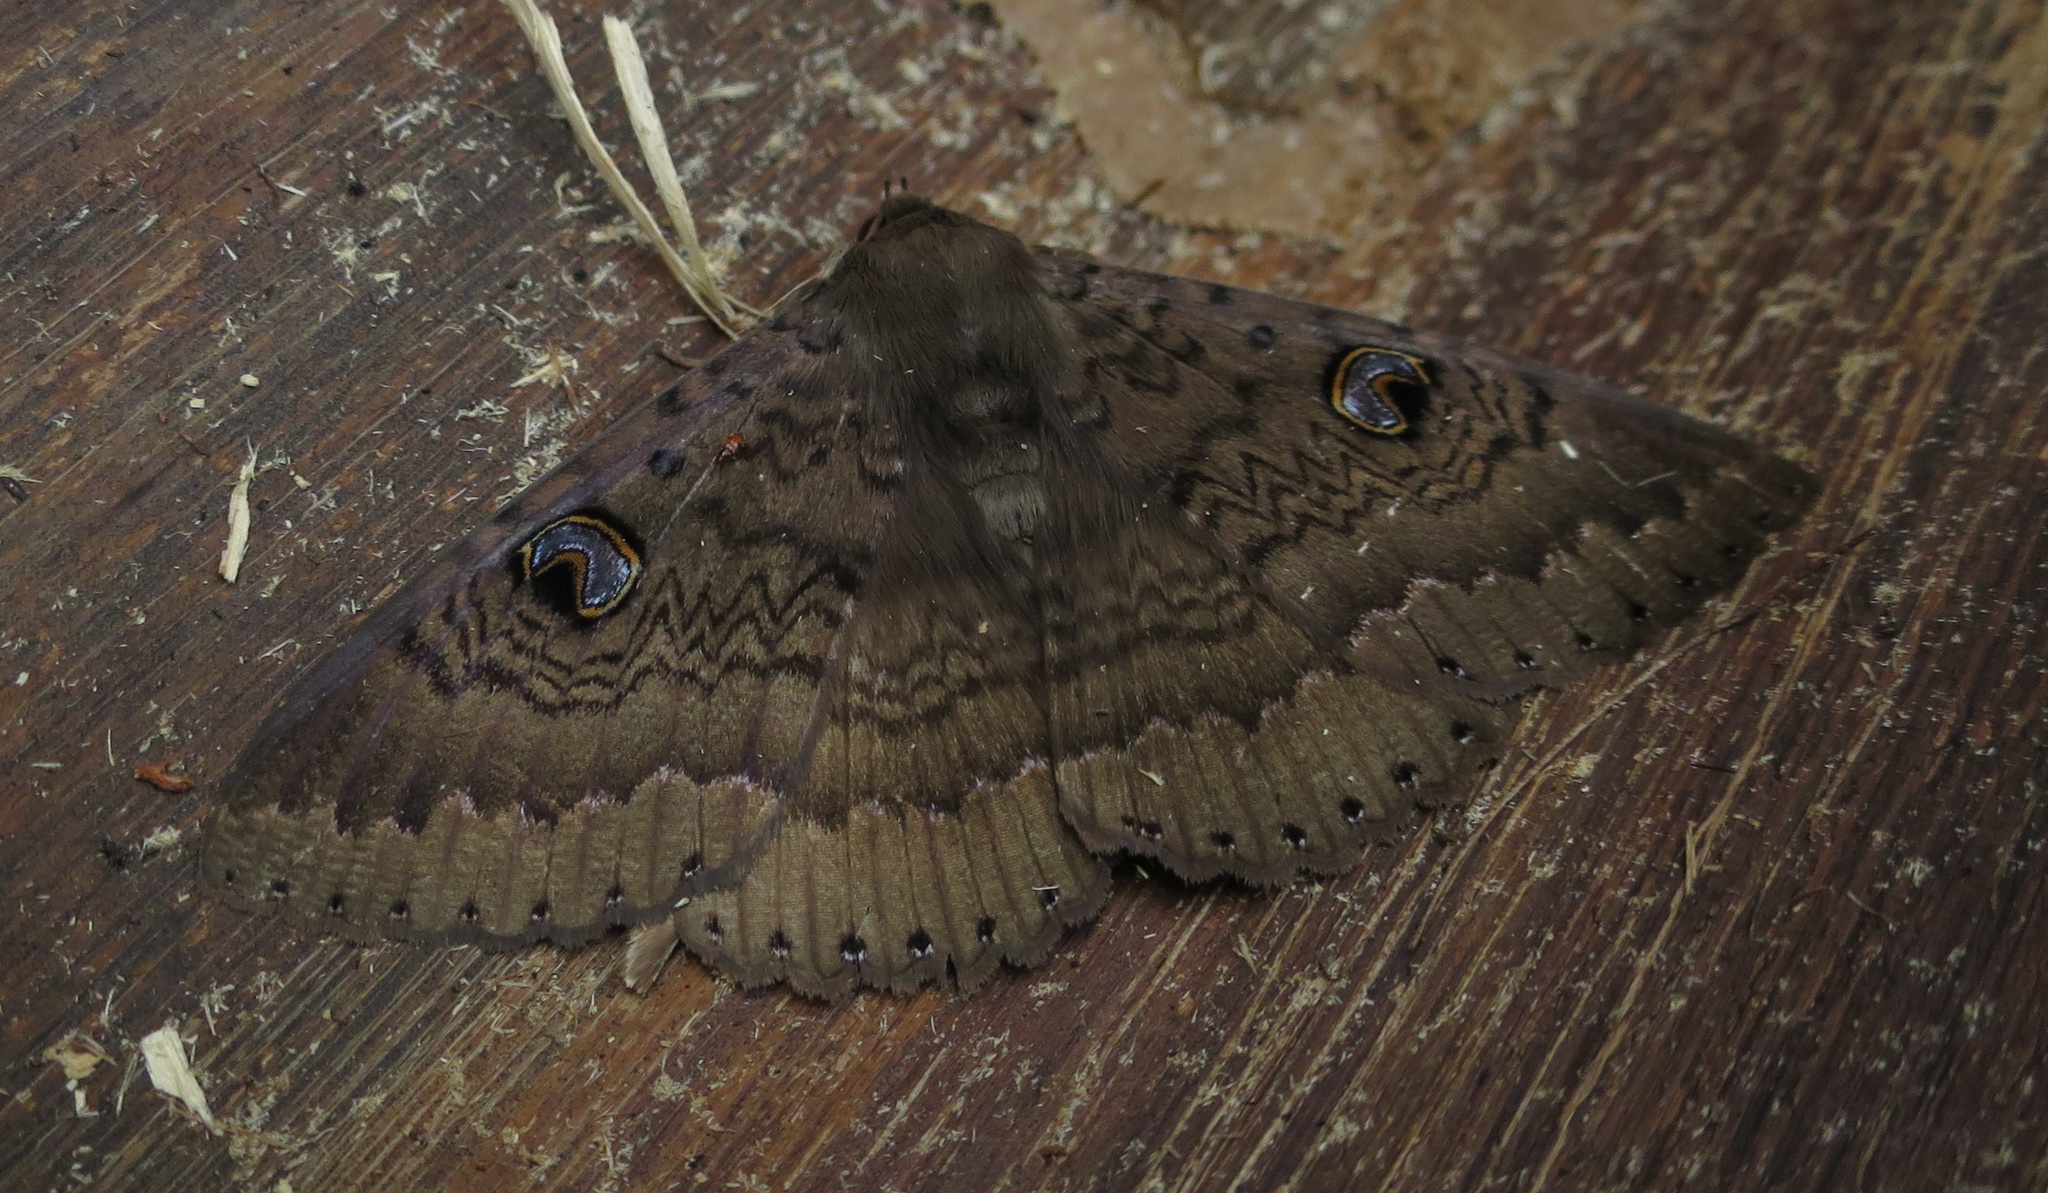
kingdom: Animalia
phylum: Arthropoda
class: Insecta
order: Lepidoptera
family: Erebidae
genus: Dasypodia
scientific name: Dasypodia cymatodes
